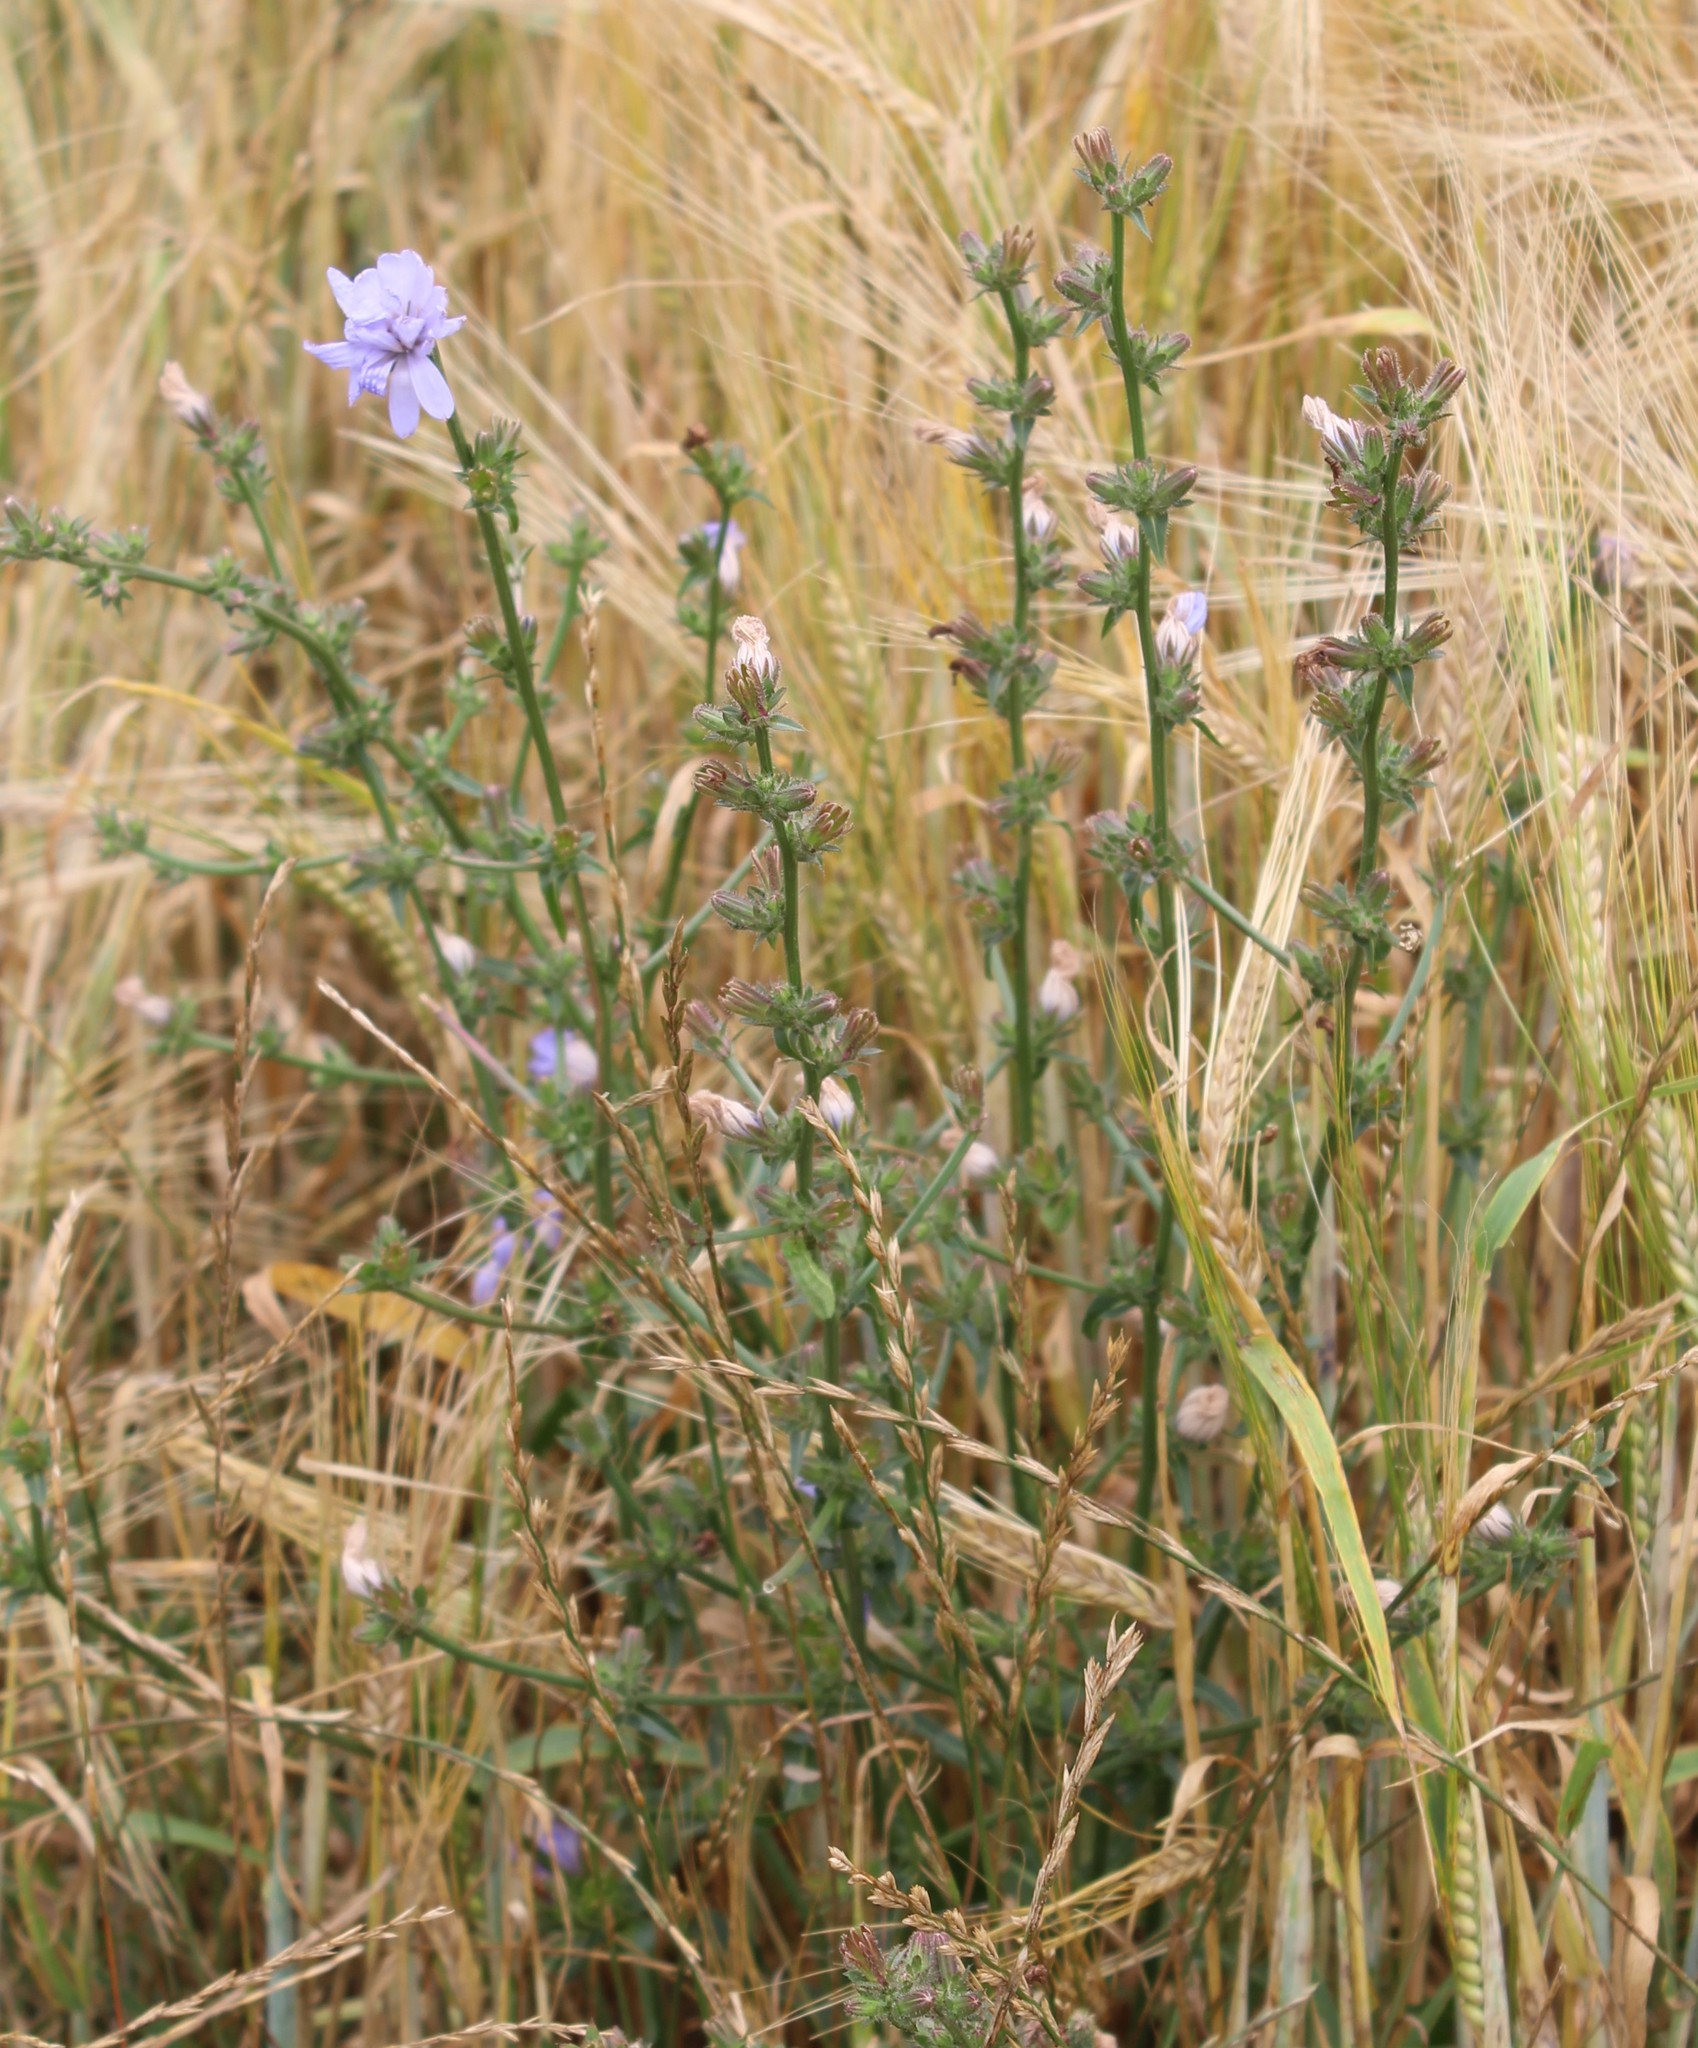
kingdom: Plantae
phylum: Tracheophyta
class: Magnoliopsida
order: Asterales
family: Asteraceae
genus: Cichorium
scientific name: Cichorium intybus
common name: Chicory
